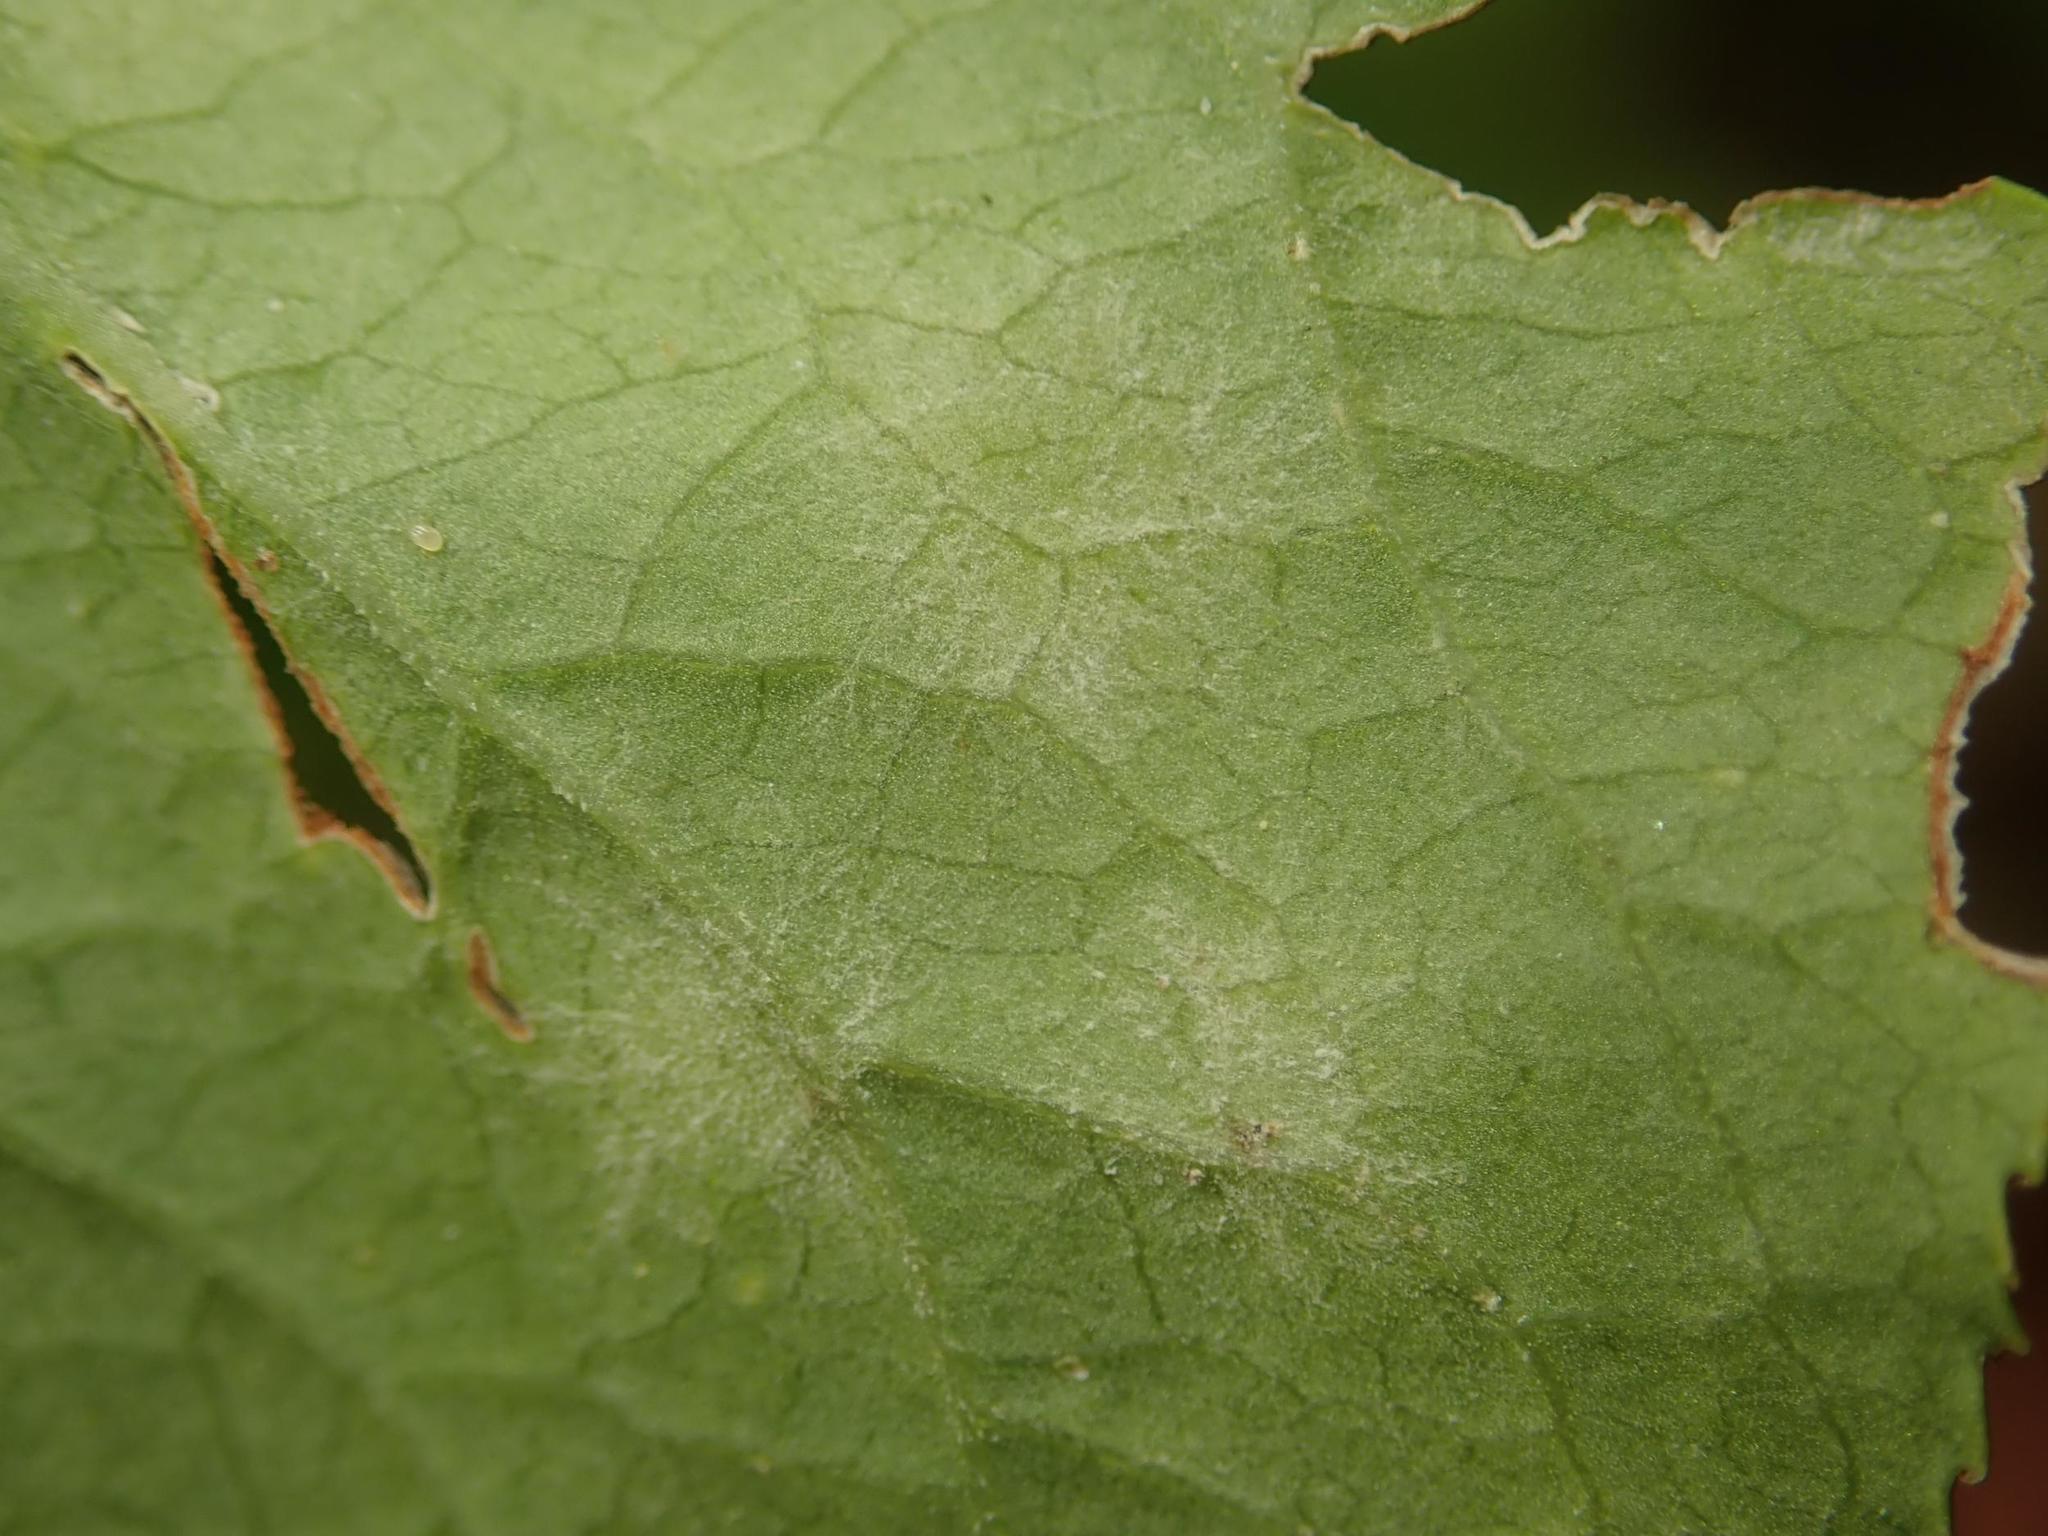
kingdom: Fungi
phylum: Ascomycota
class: Leotiomycetes
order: Helotiales
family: Erysiphaceae
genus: Erysiphe
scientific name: Erysiphe euonymi
